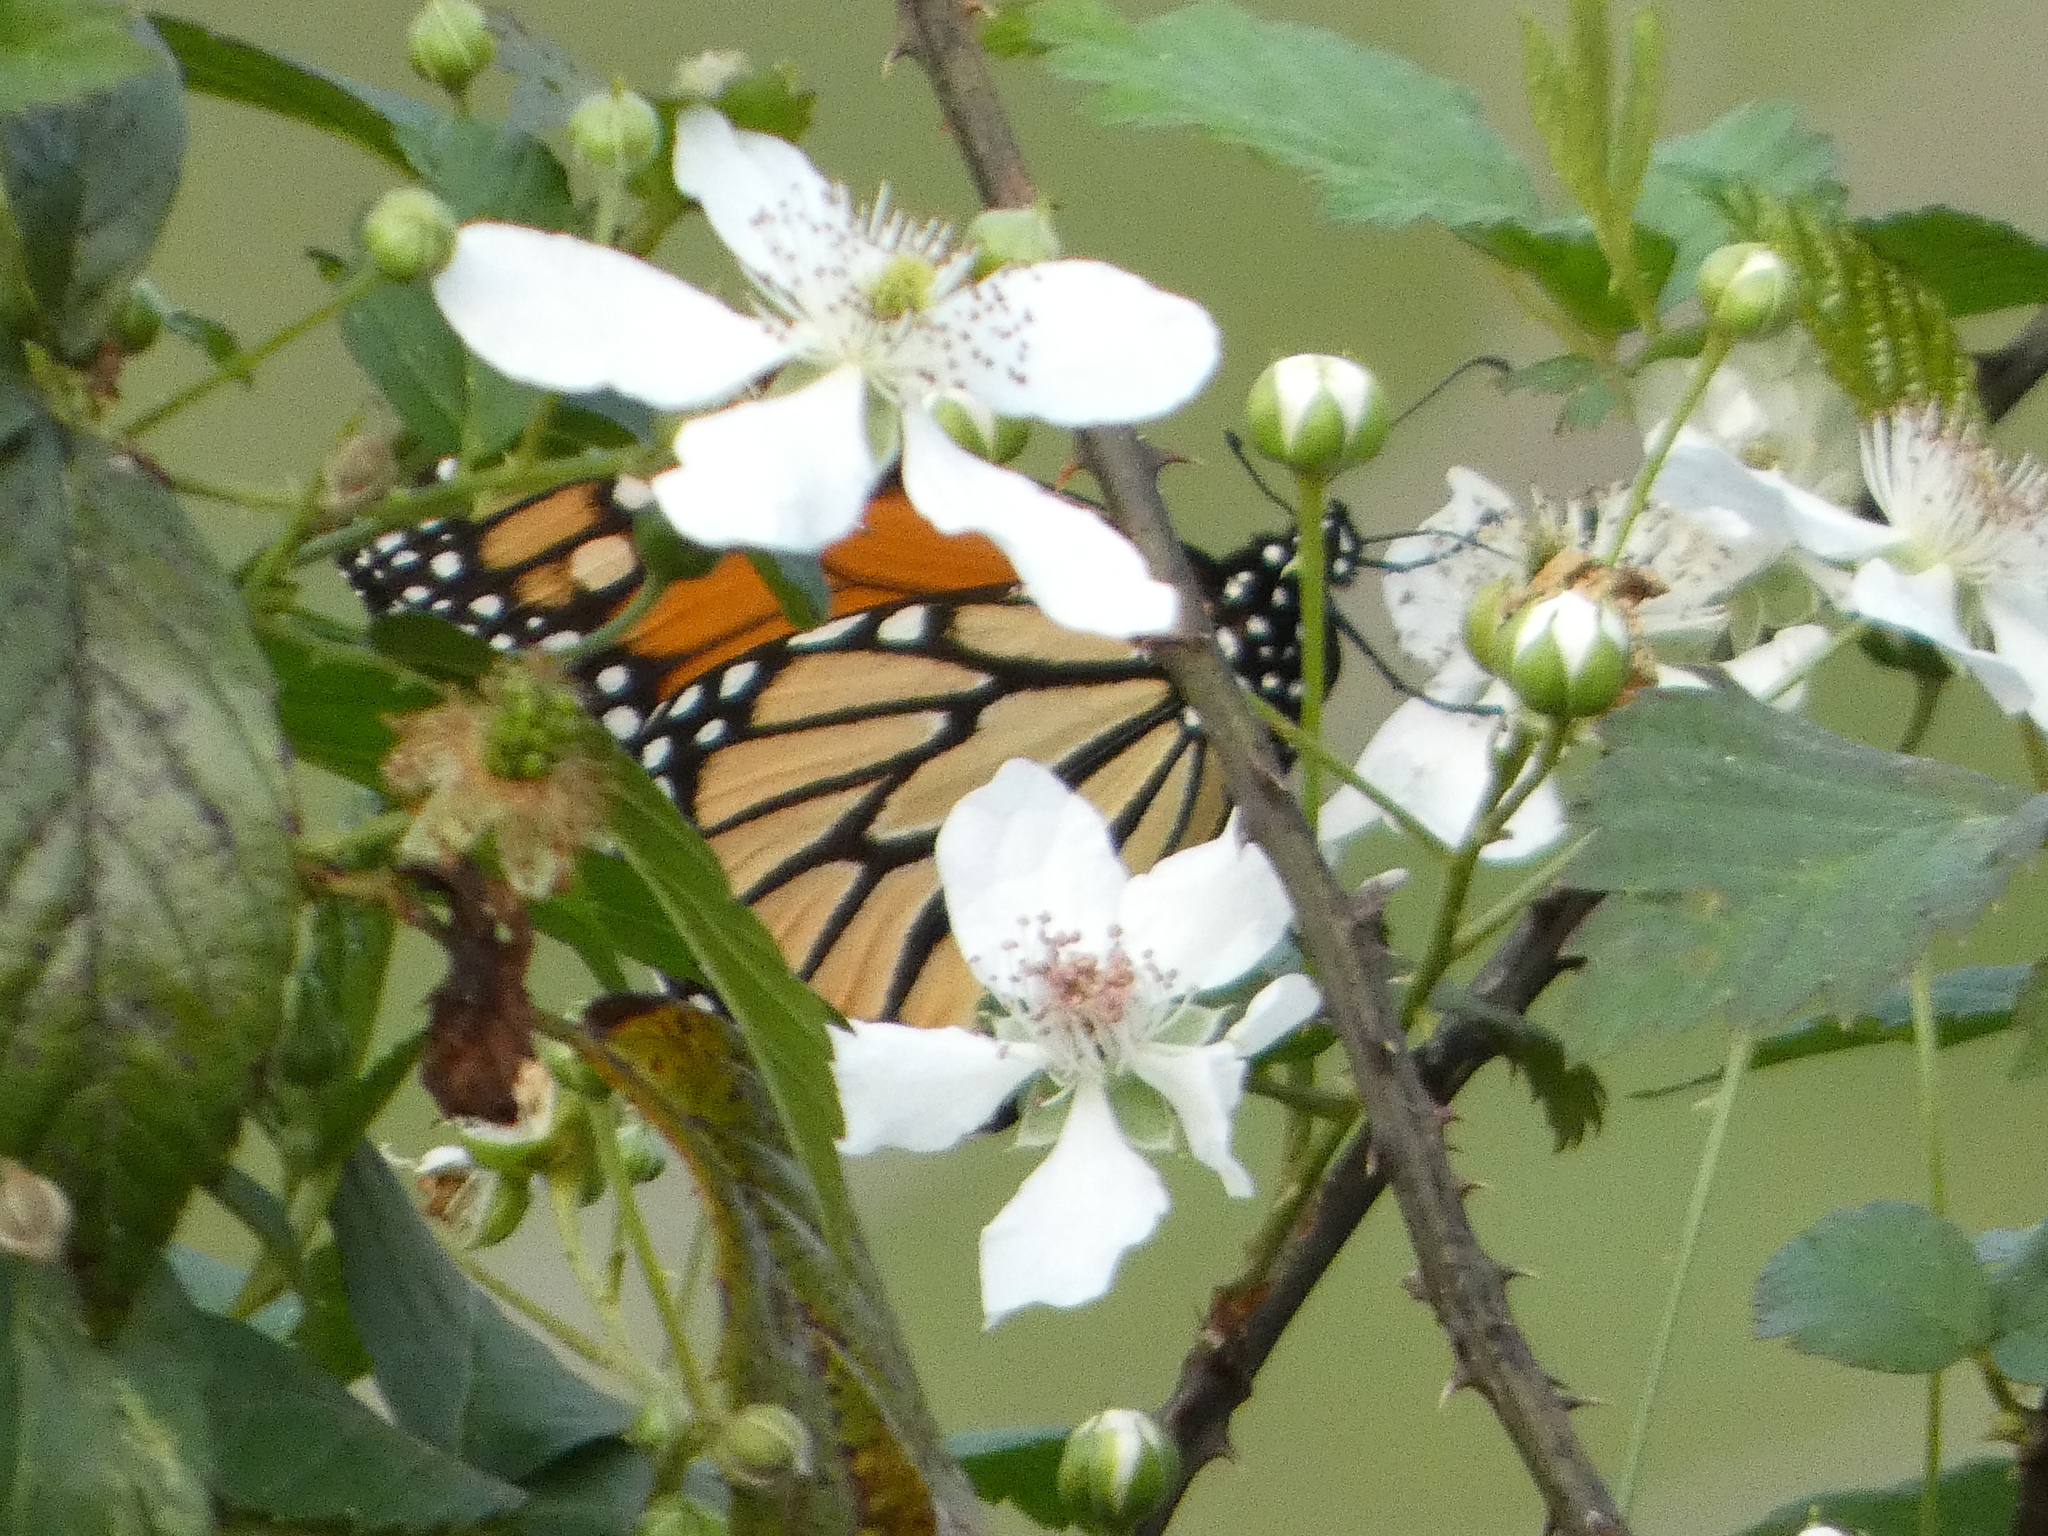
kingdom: Animalia
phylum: Arthropoda
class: Insecta
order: Lepidoptera
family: Nymphalidae
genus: Danaus
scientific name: Danaus plexippus
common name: Monarch
